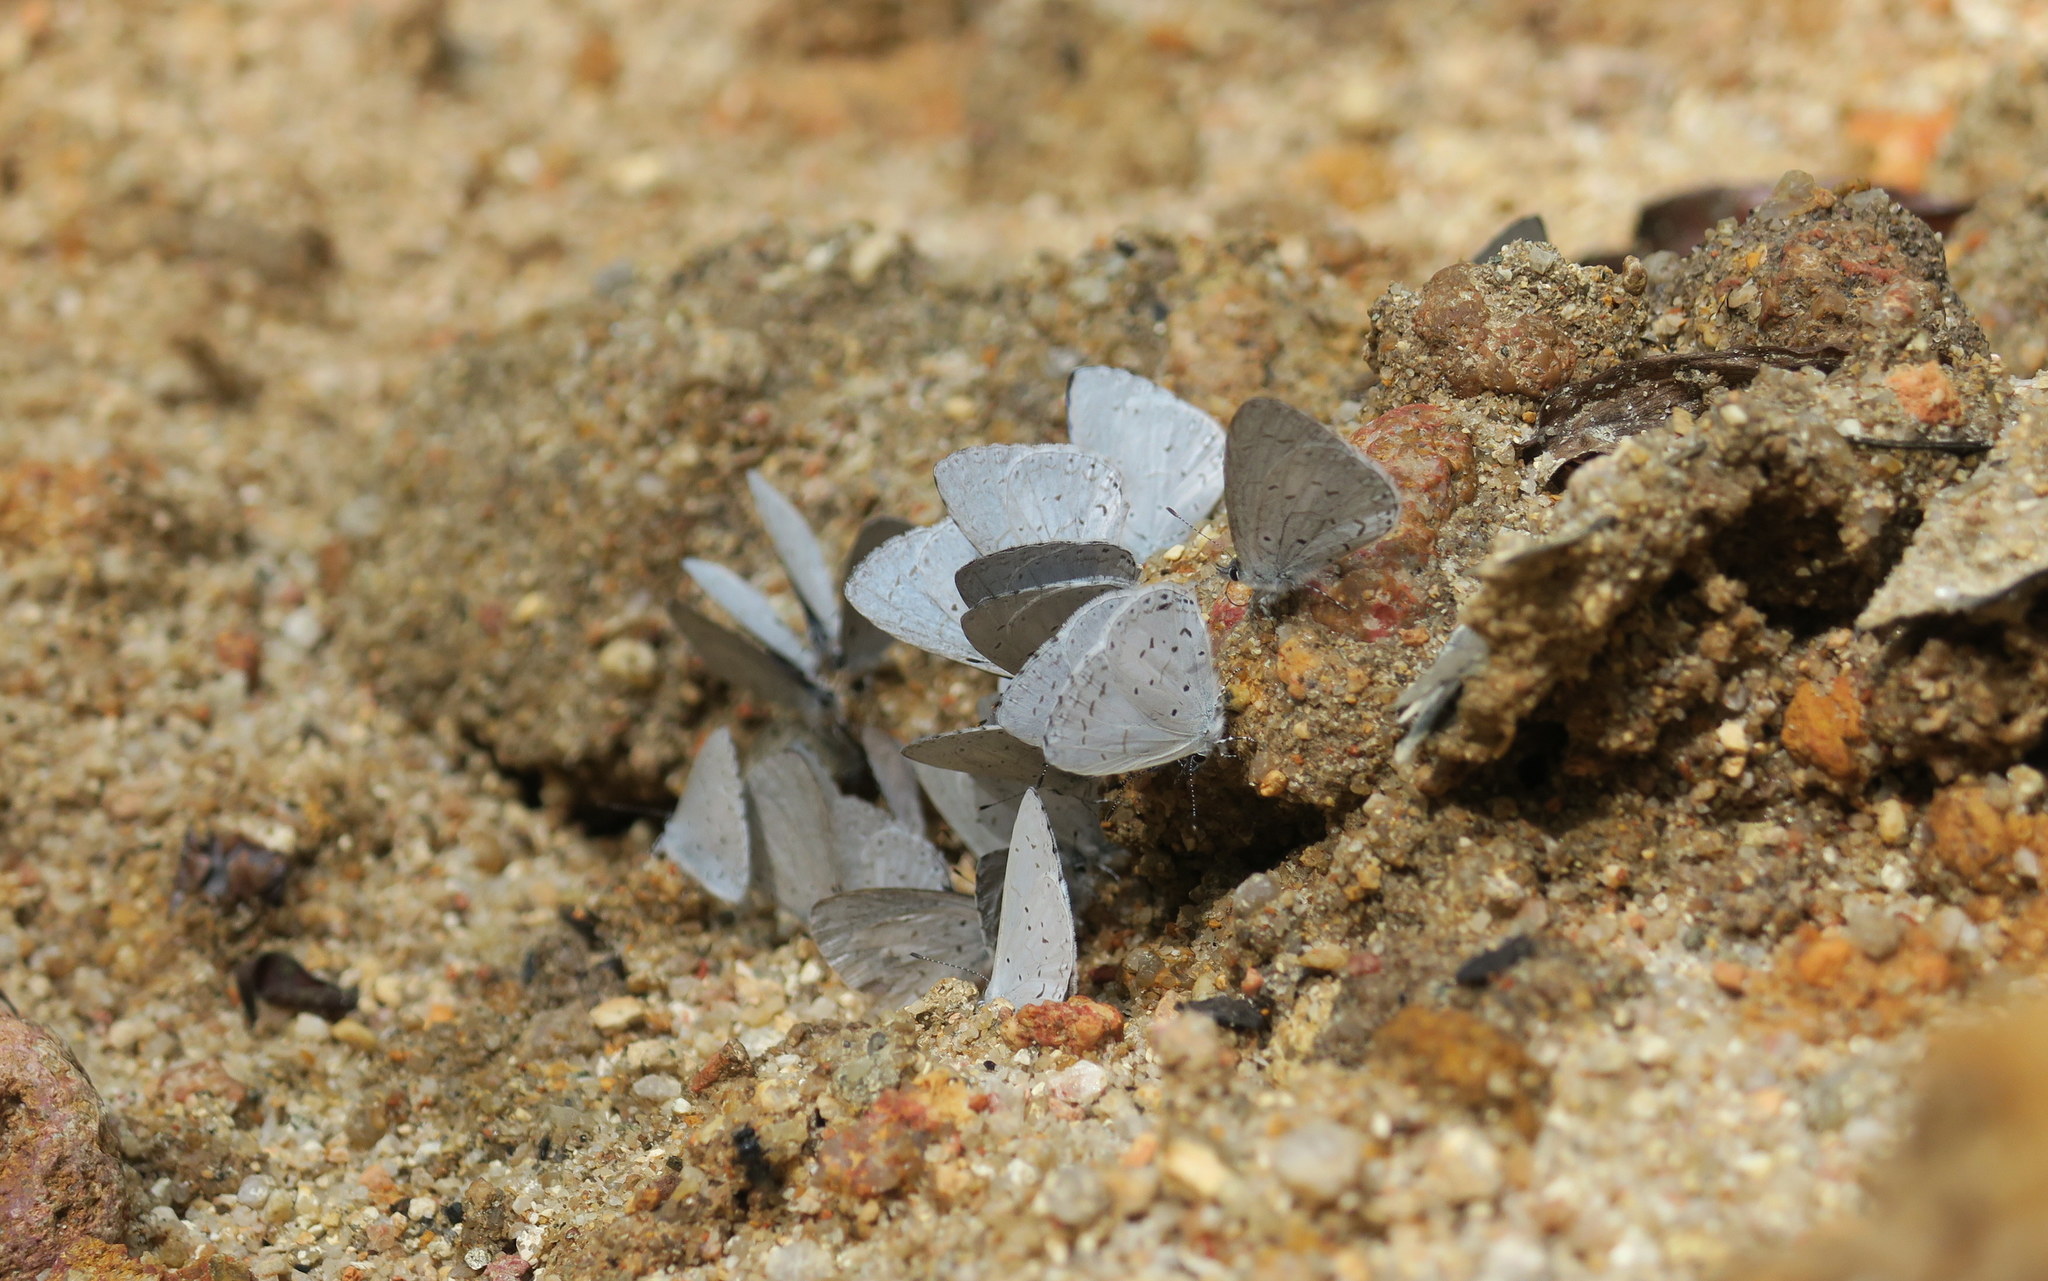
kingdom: Animalia
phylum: Arthropoda
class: Insecta
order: Lepidoptera
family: Lycaenidae
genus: Udara
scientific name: Udara dilectus
